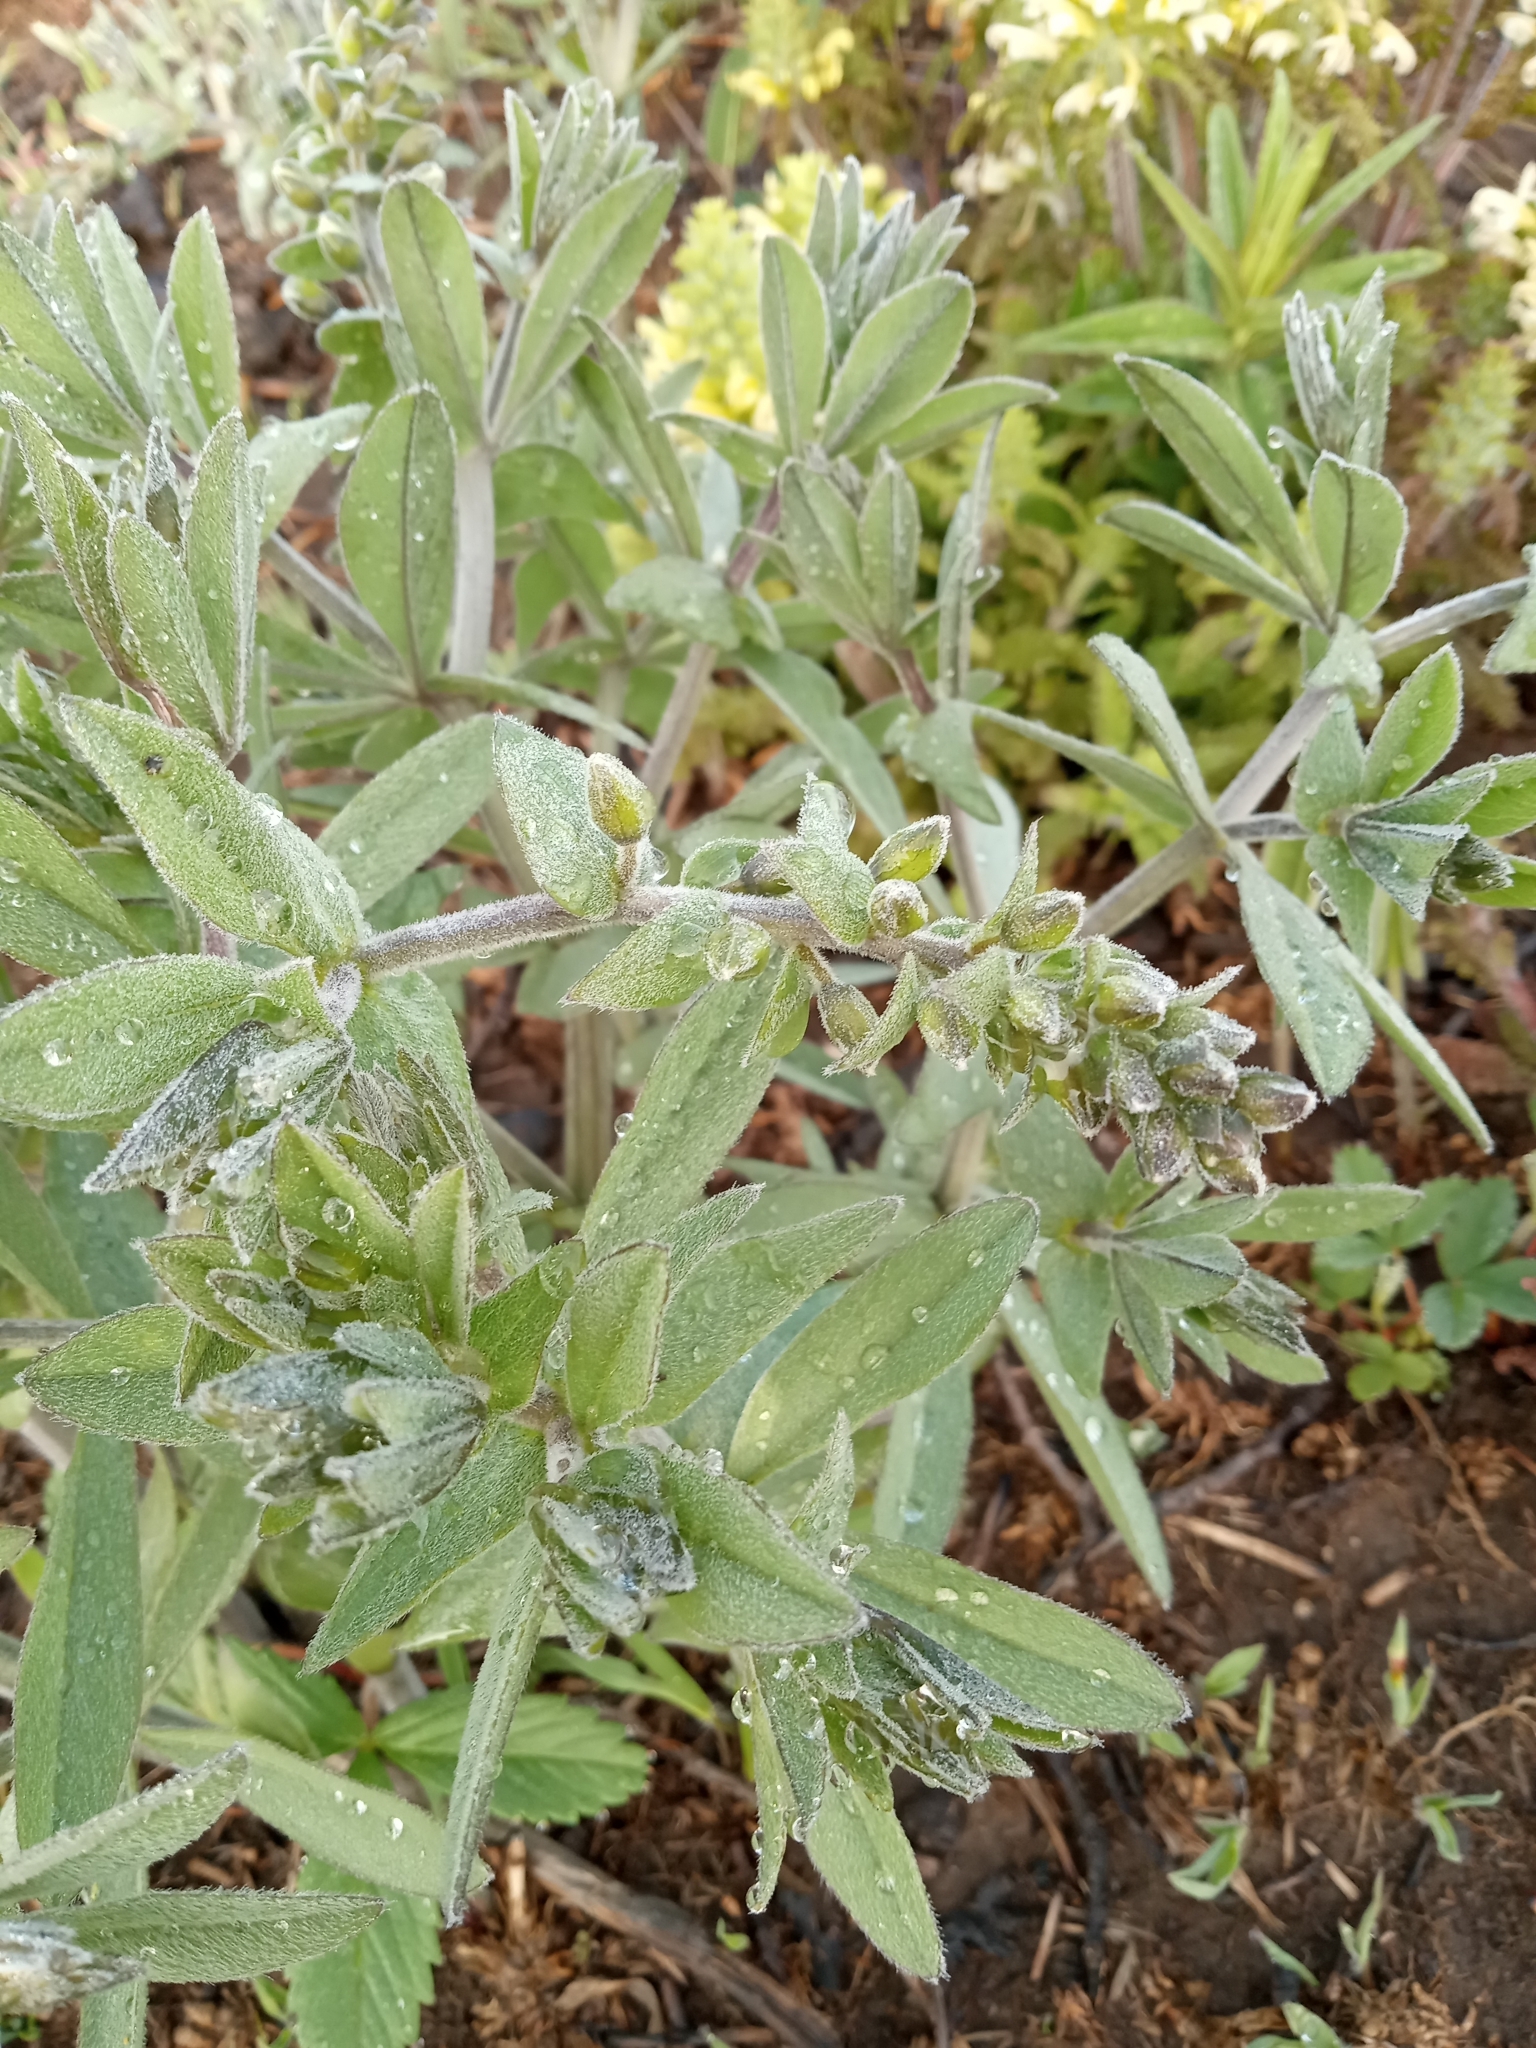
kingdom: Plantae
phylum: Tracheophyta
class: Magnoliopsida
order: Fabales
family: Fabaceae
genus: Baptisia
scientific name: Baptisia bracteata
